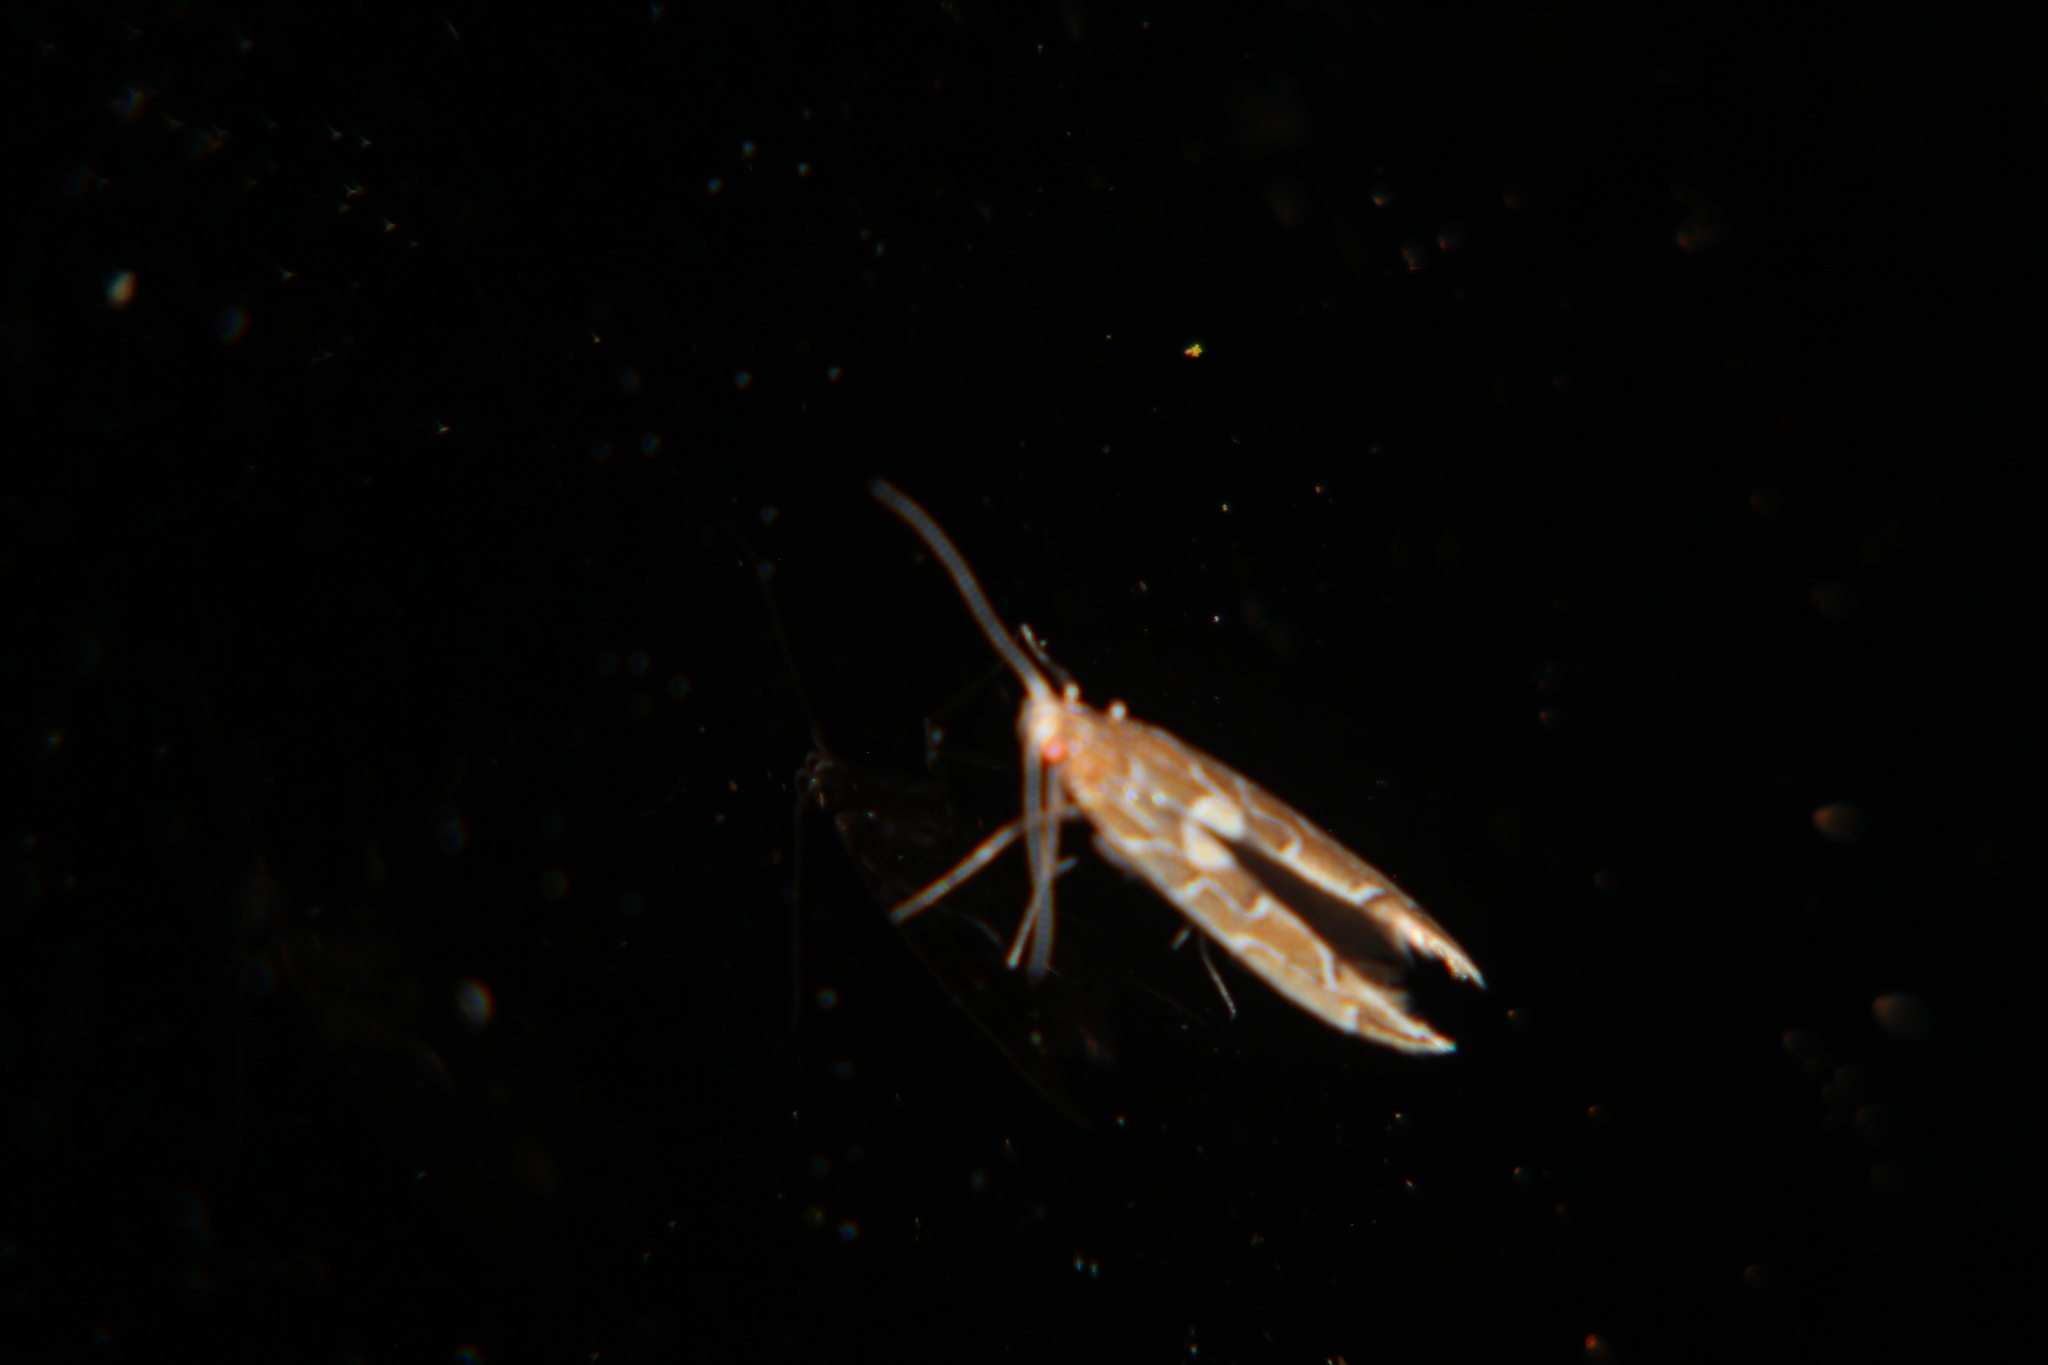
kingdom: Animalia
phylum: Arthropoda
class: Insecta
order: Lepidoptera
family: Cosmopterigidae
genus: Pyroderces
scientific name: Pyroderces apparitella
